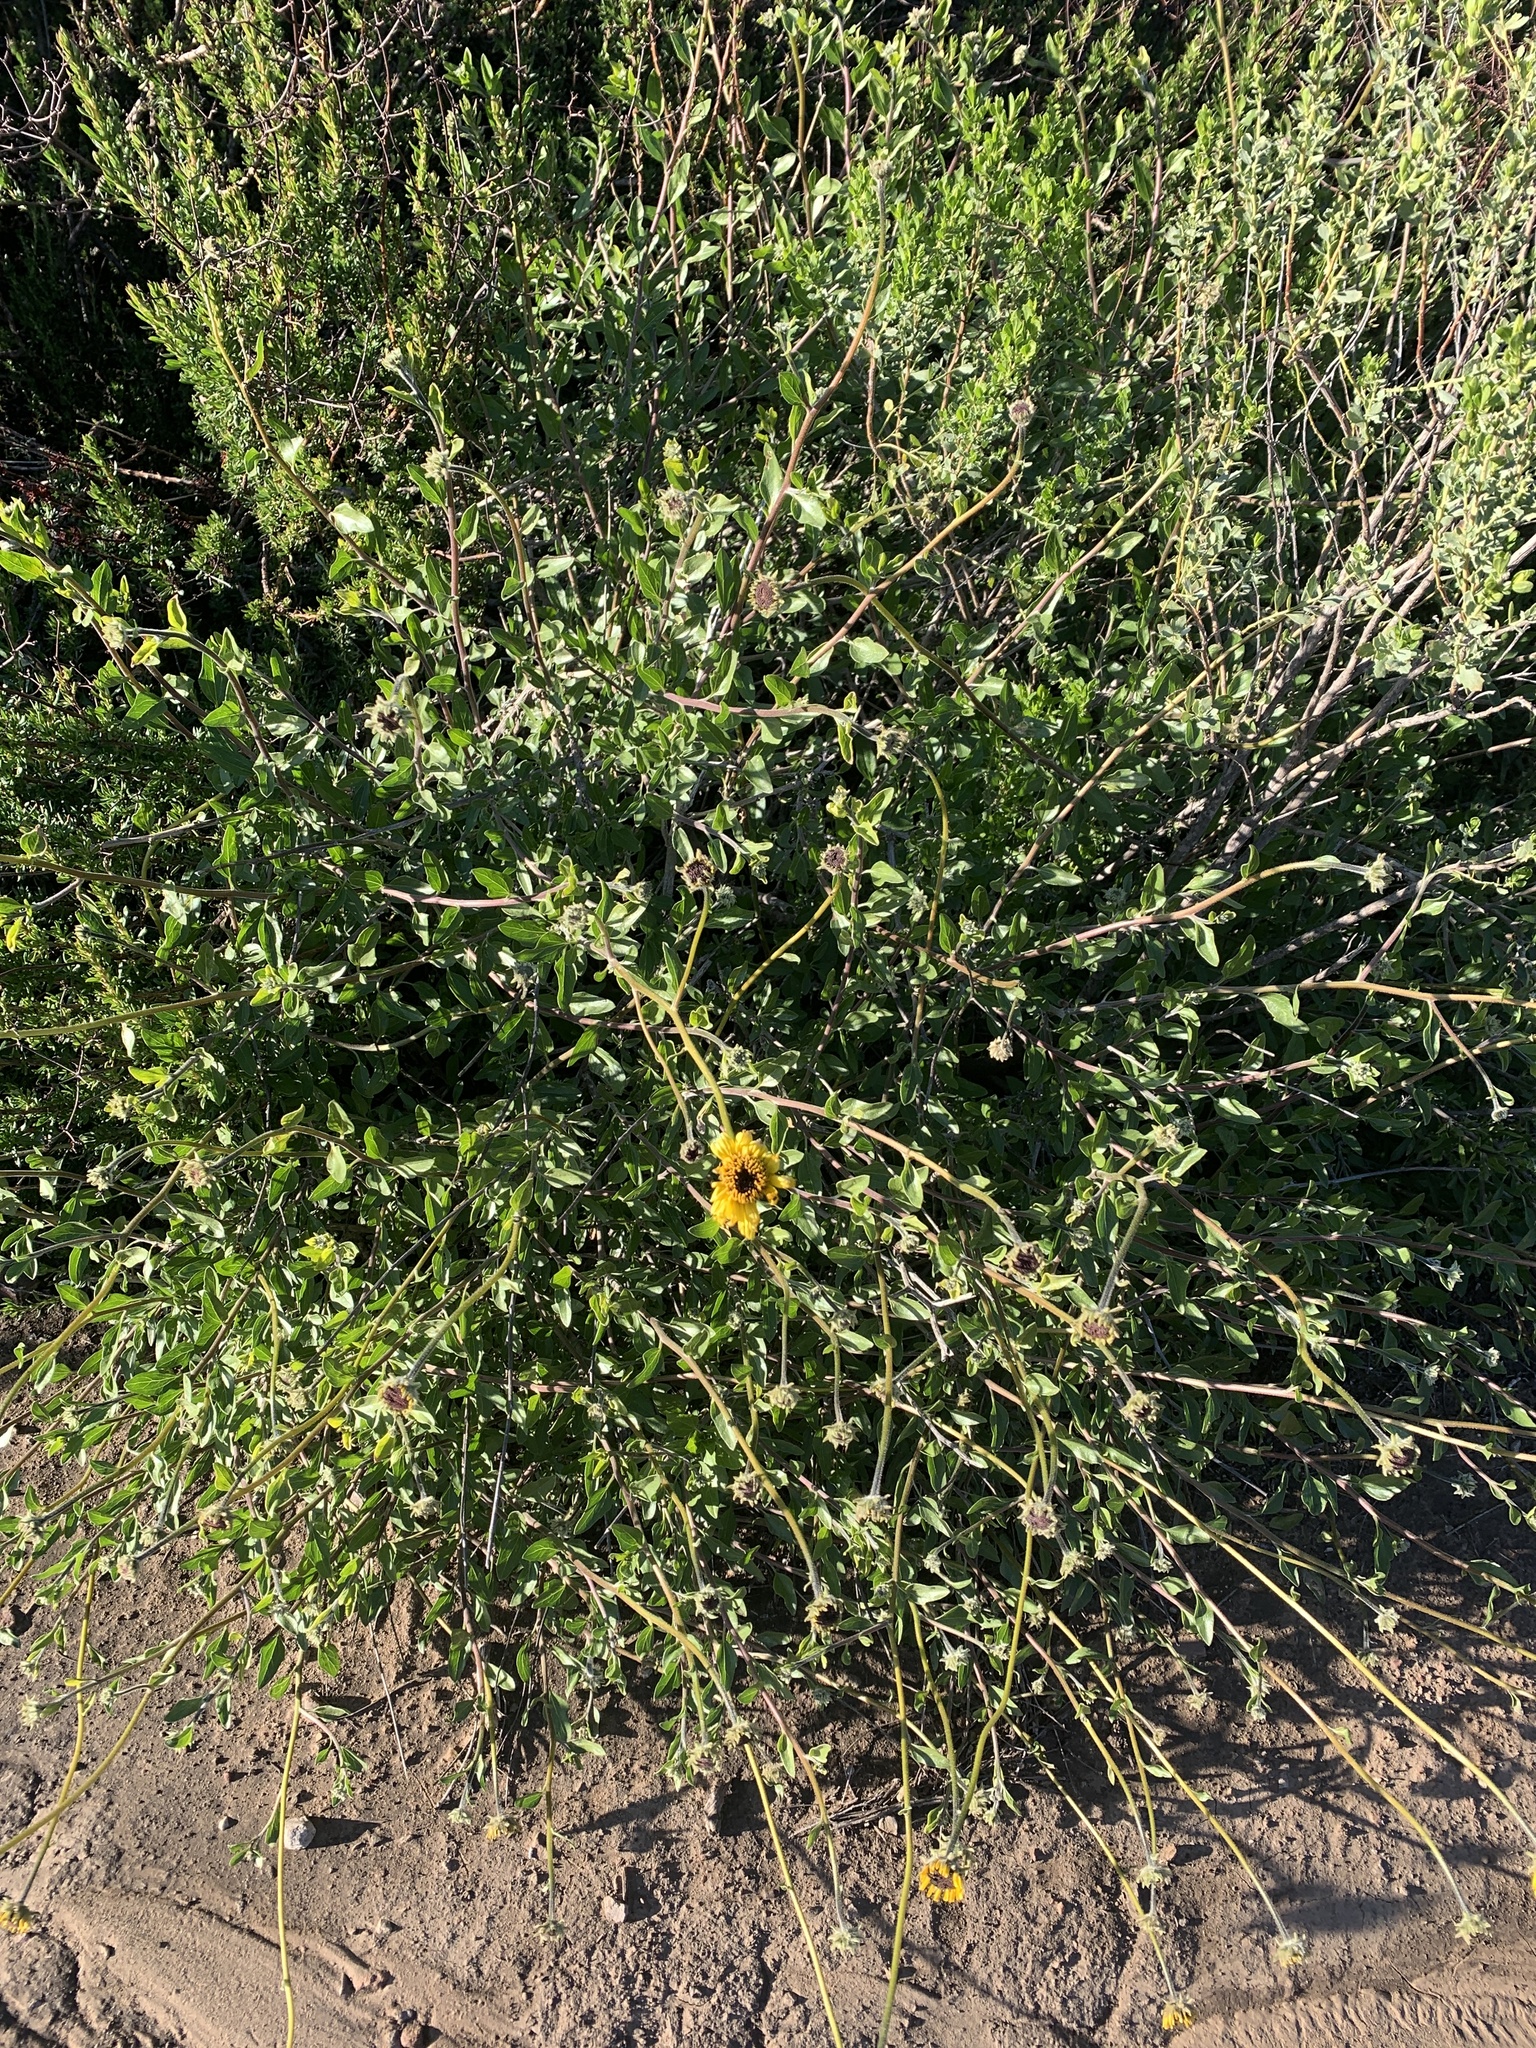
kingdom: Plantae
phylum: Tracheophyta
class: Magnoliopsida
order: Asterales
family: Asteraceae
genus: Encelia
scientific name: Encelia californica
